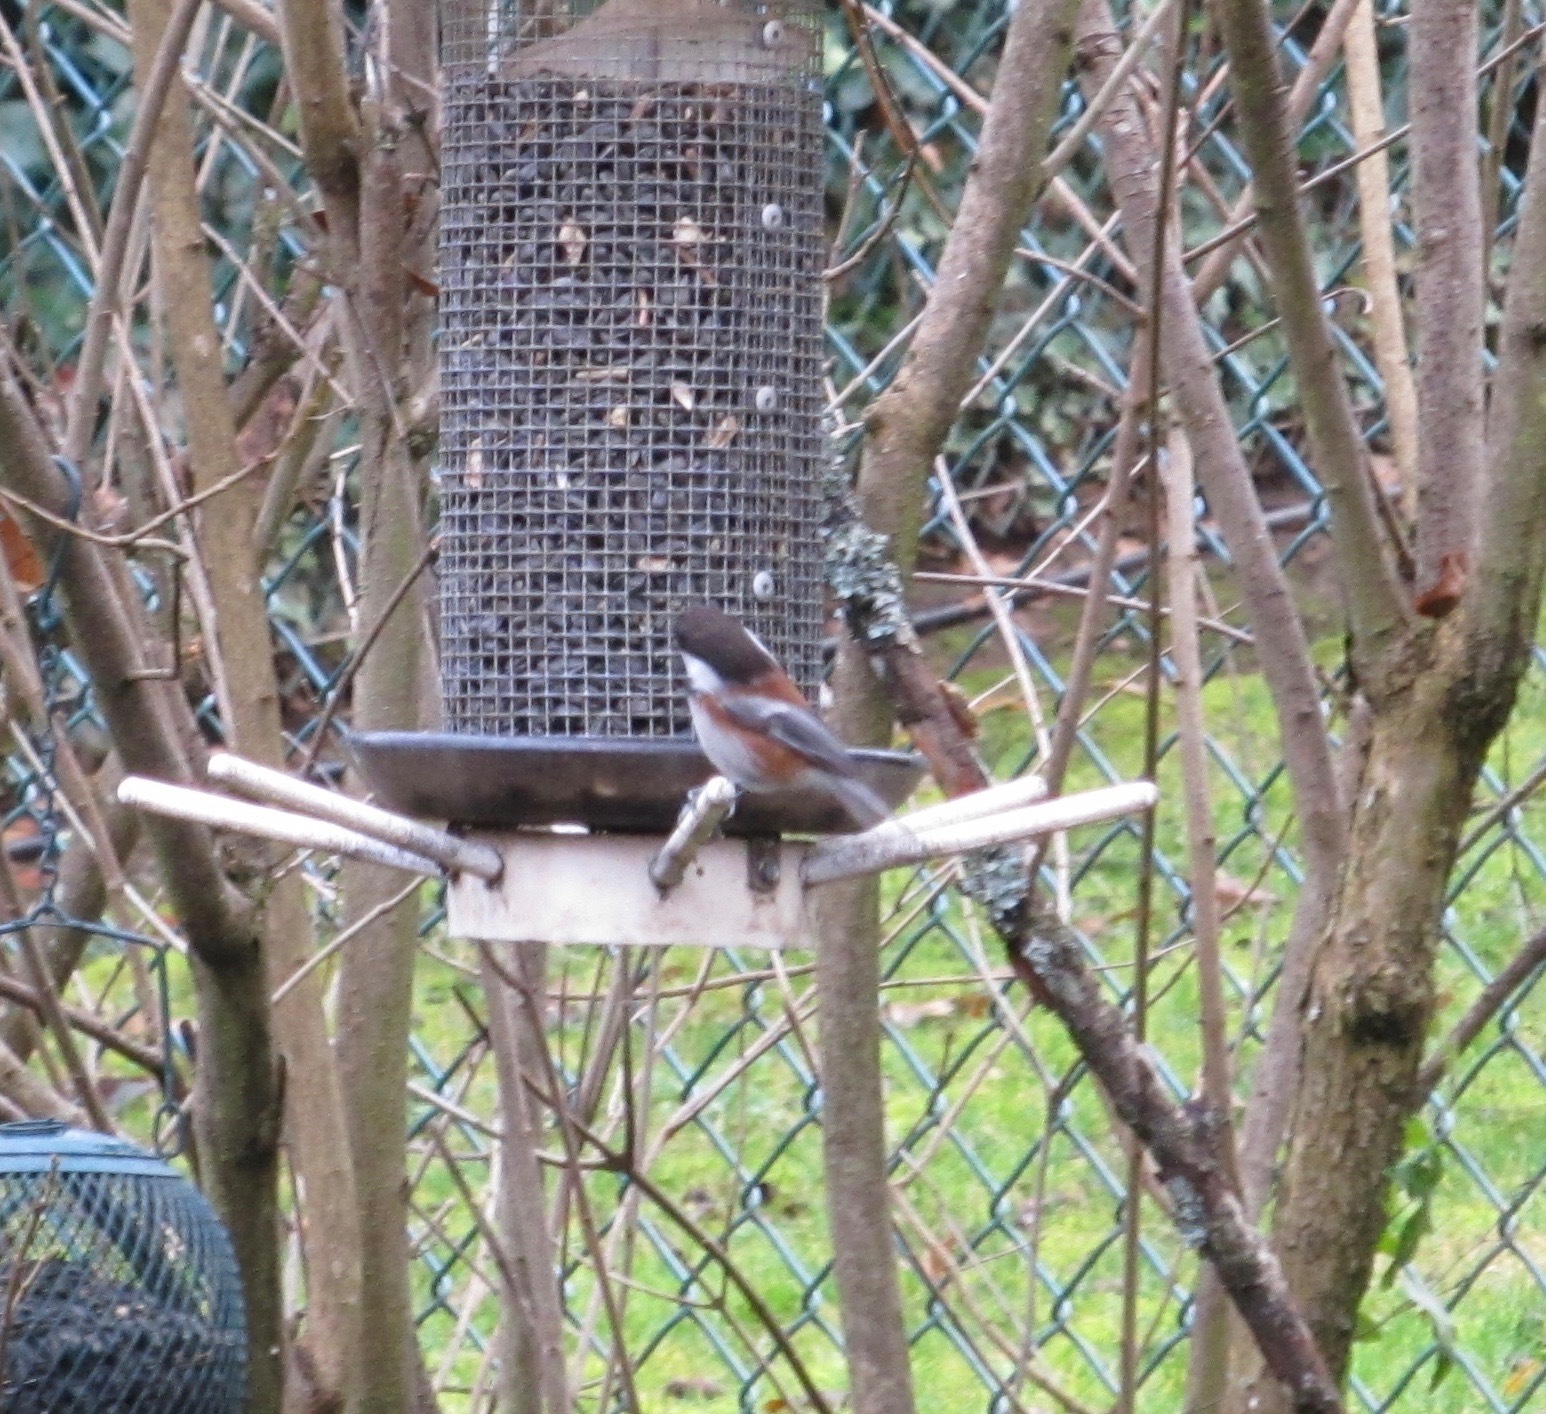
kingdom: Animalia
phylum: Chordata
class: Aves
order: Passeriformes
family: Paridae
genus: Poecile
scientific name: Poecile rufescens
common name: Chestnut-backed chickadee
